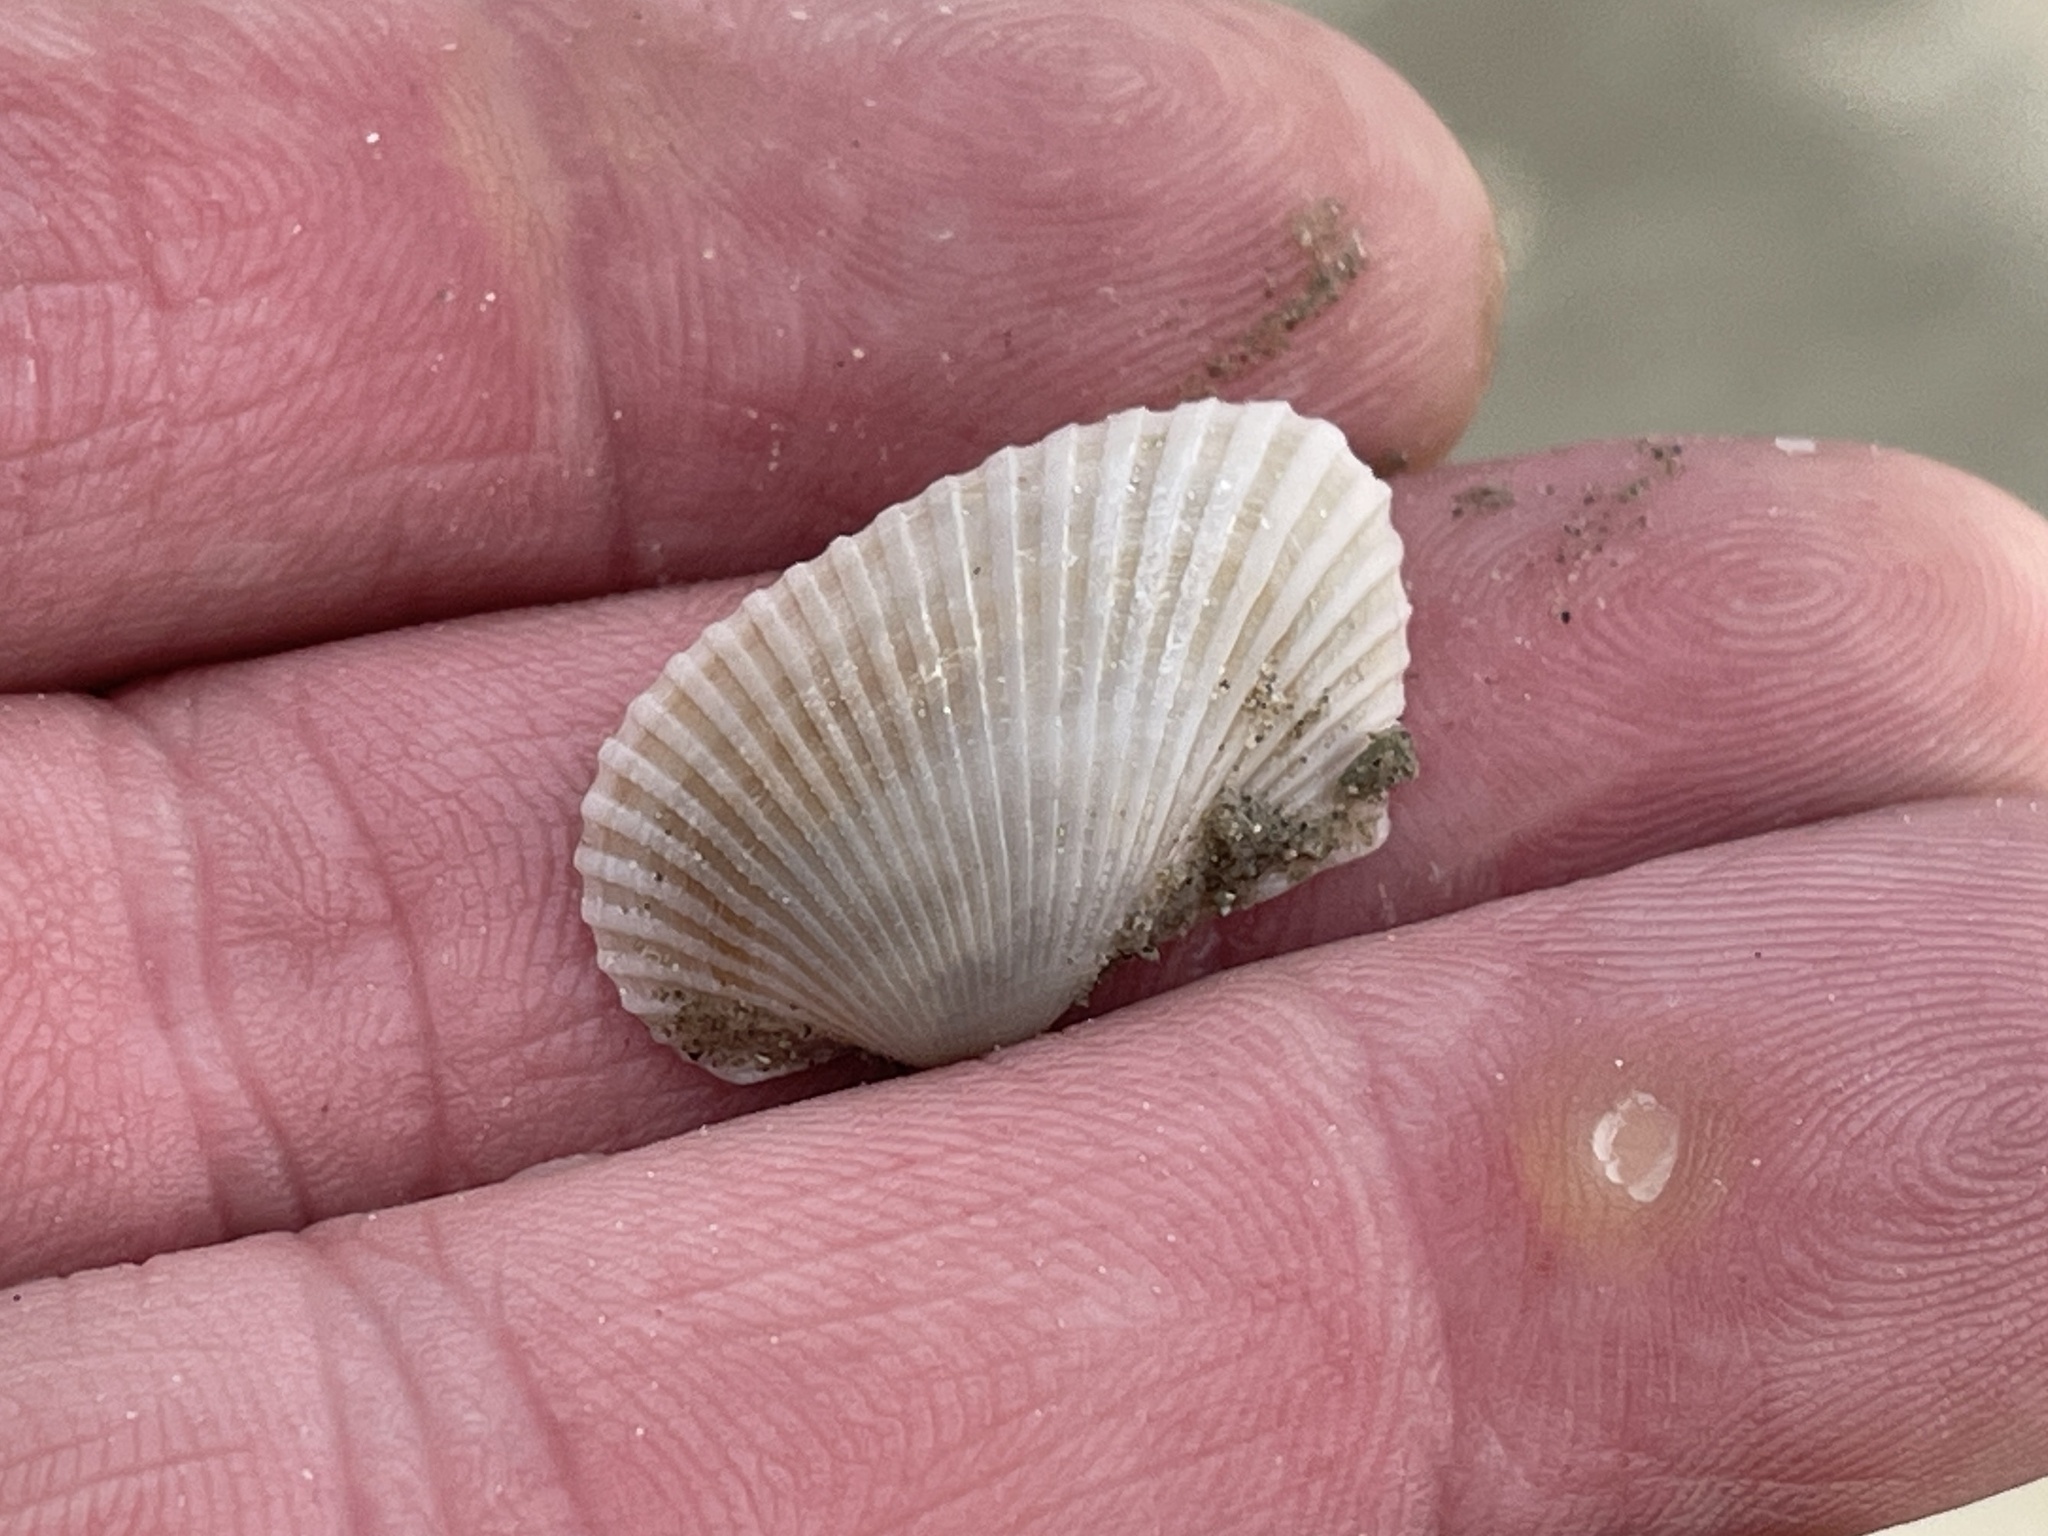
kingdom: Animalia
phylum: Mollusca
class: Bivalvia
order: Arcida
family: Arcidae
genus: Anadara
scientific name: Anadara transversa
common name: Transverse ark
